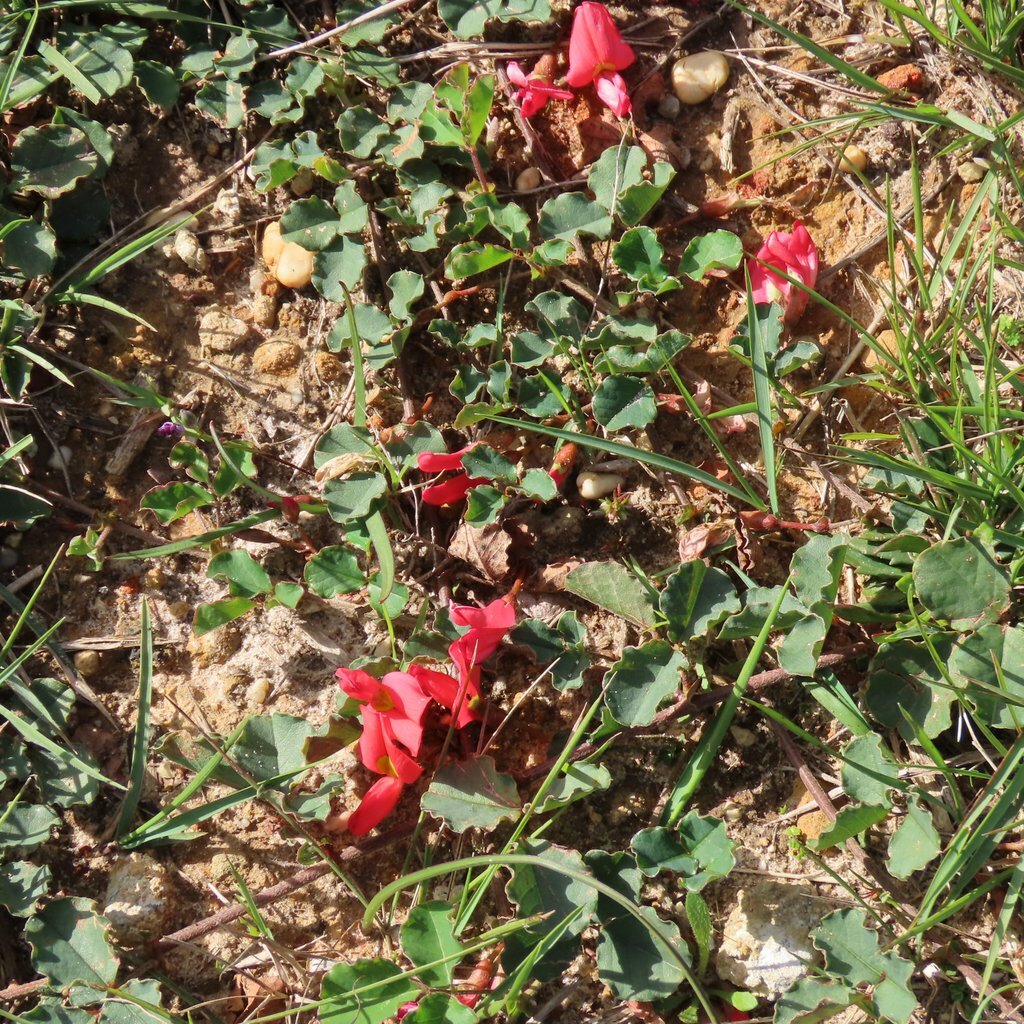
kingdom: Plantae
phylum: Tracheophyta
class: Magnoliopsida
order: Fabales
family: Fabaceae
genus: Kennedia
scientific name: Kennedia prostrata
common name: Running-postman
